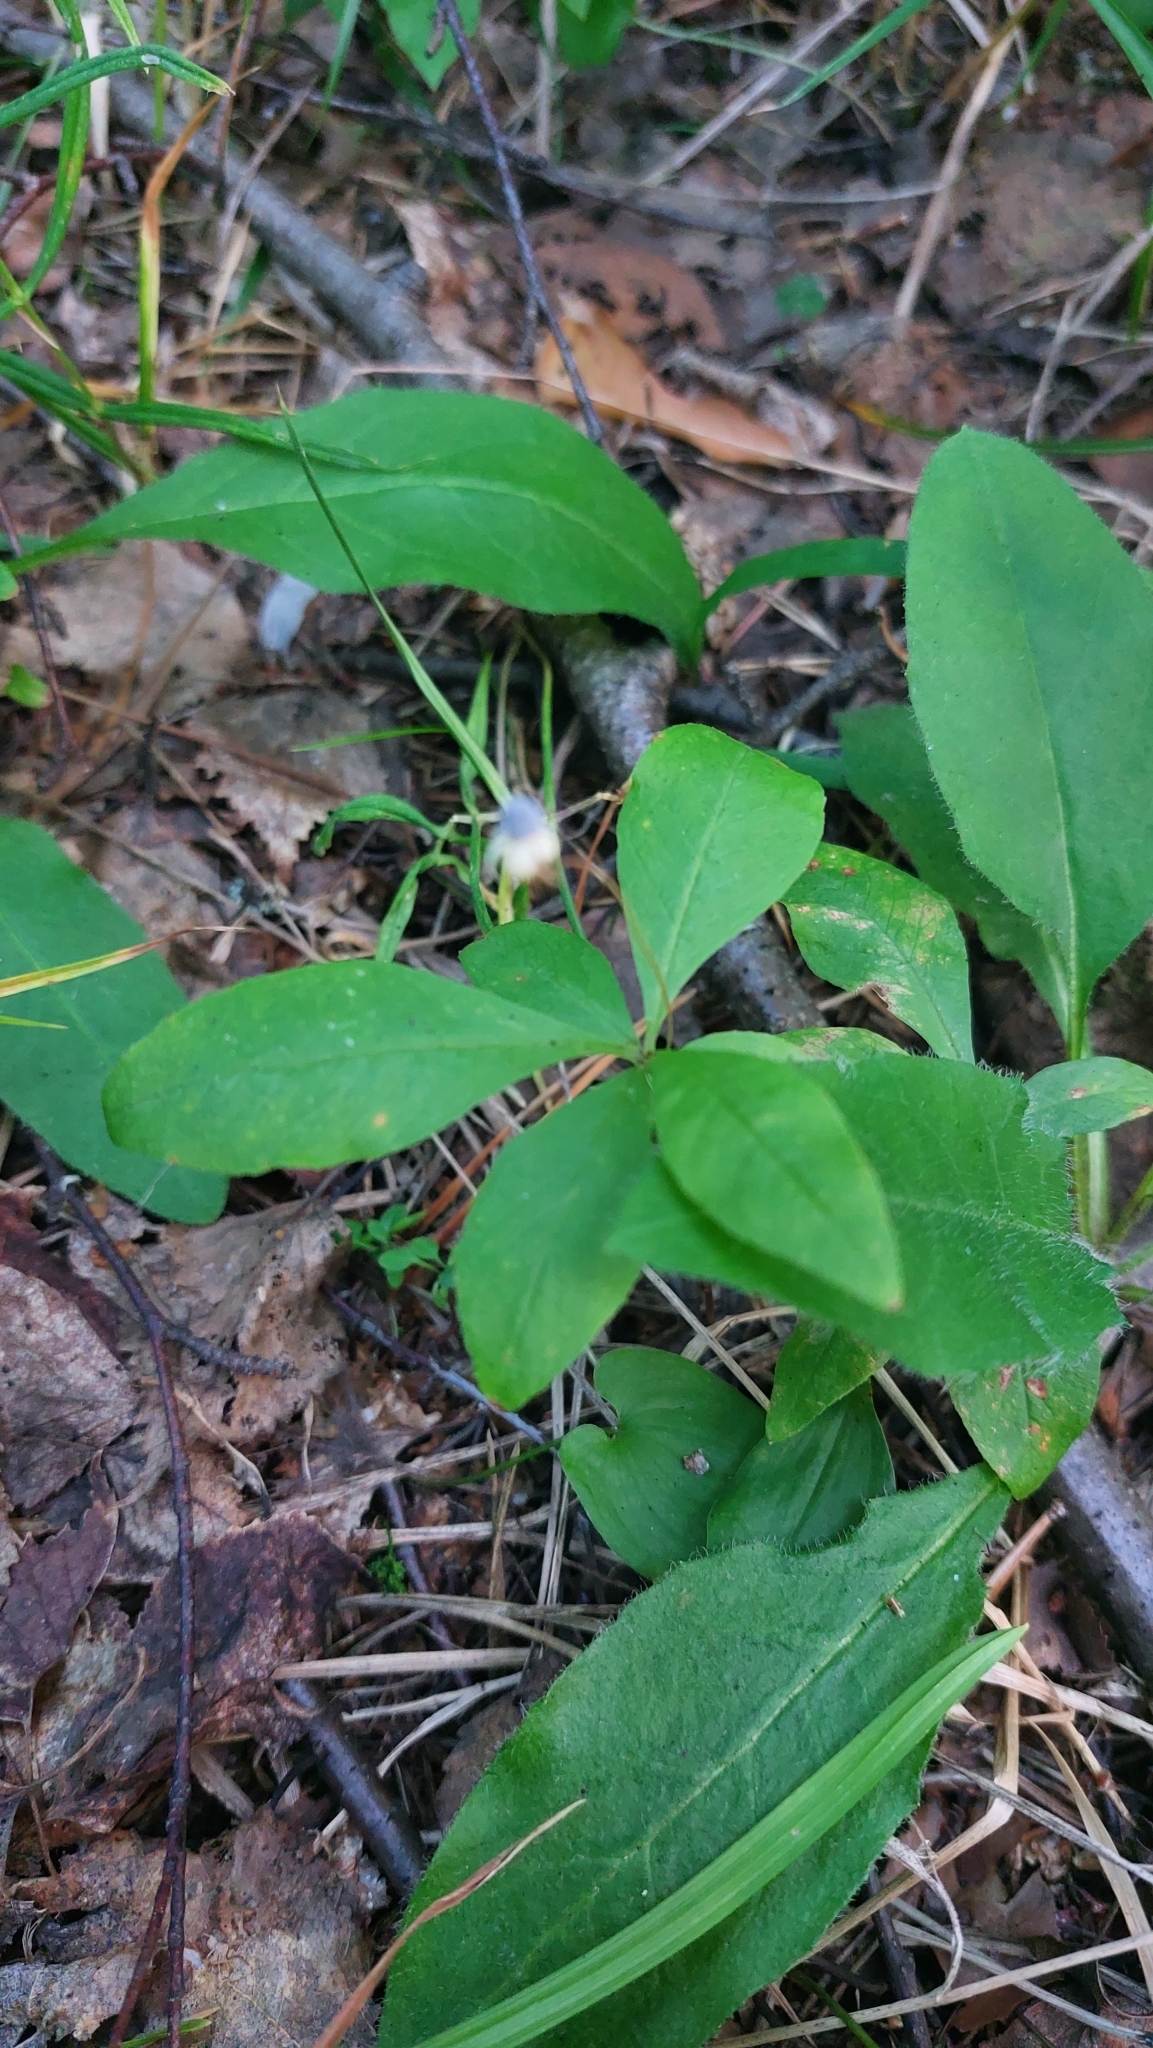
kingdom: Plantae
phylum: Tracheophyta
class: Magnoliopsida
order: Ericales
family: Primulaceae
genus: Lysimachia
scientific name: Lysimachia europaea
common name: Arctic starflower
